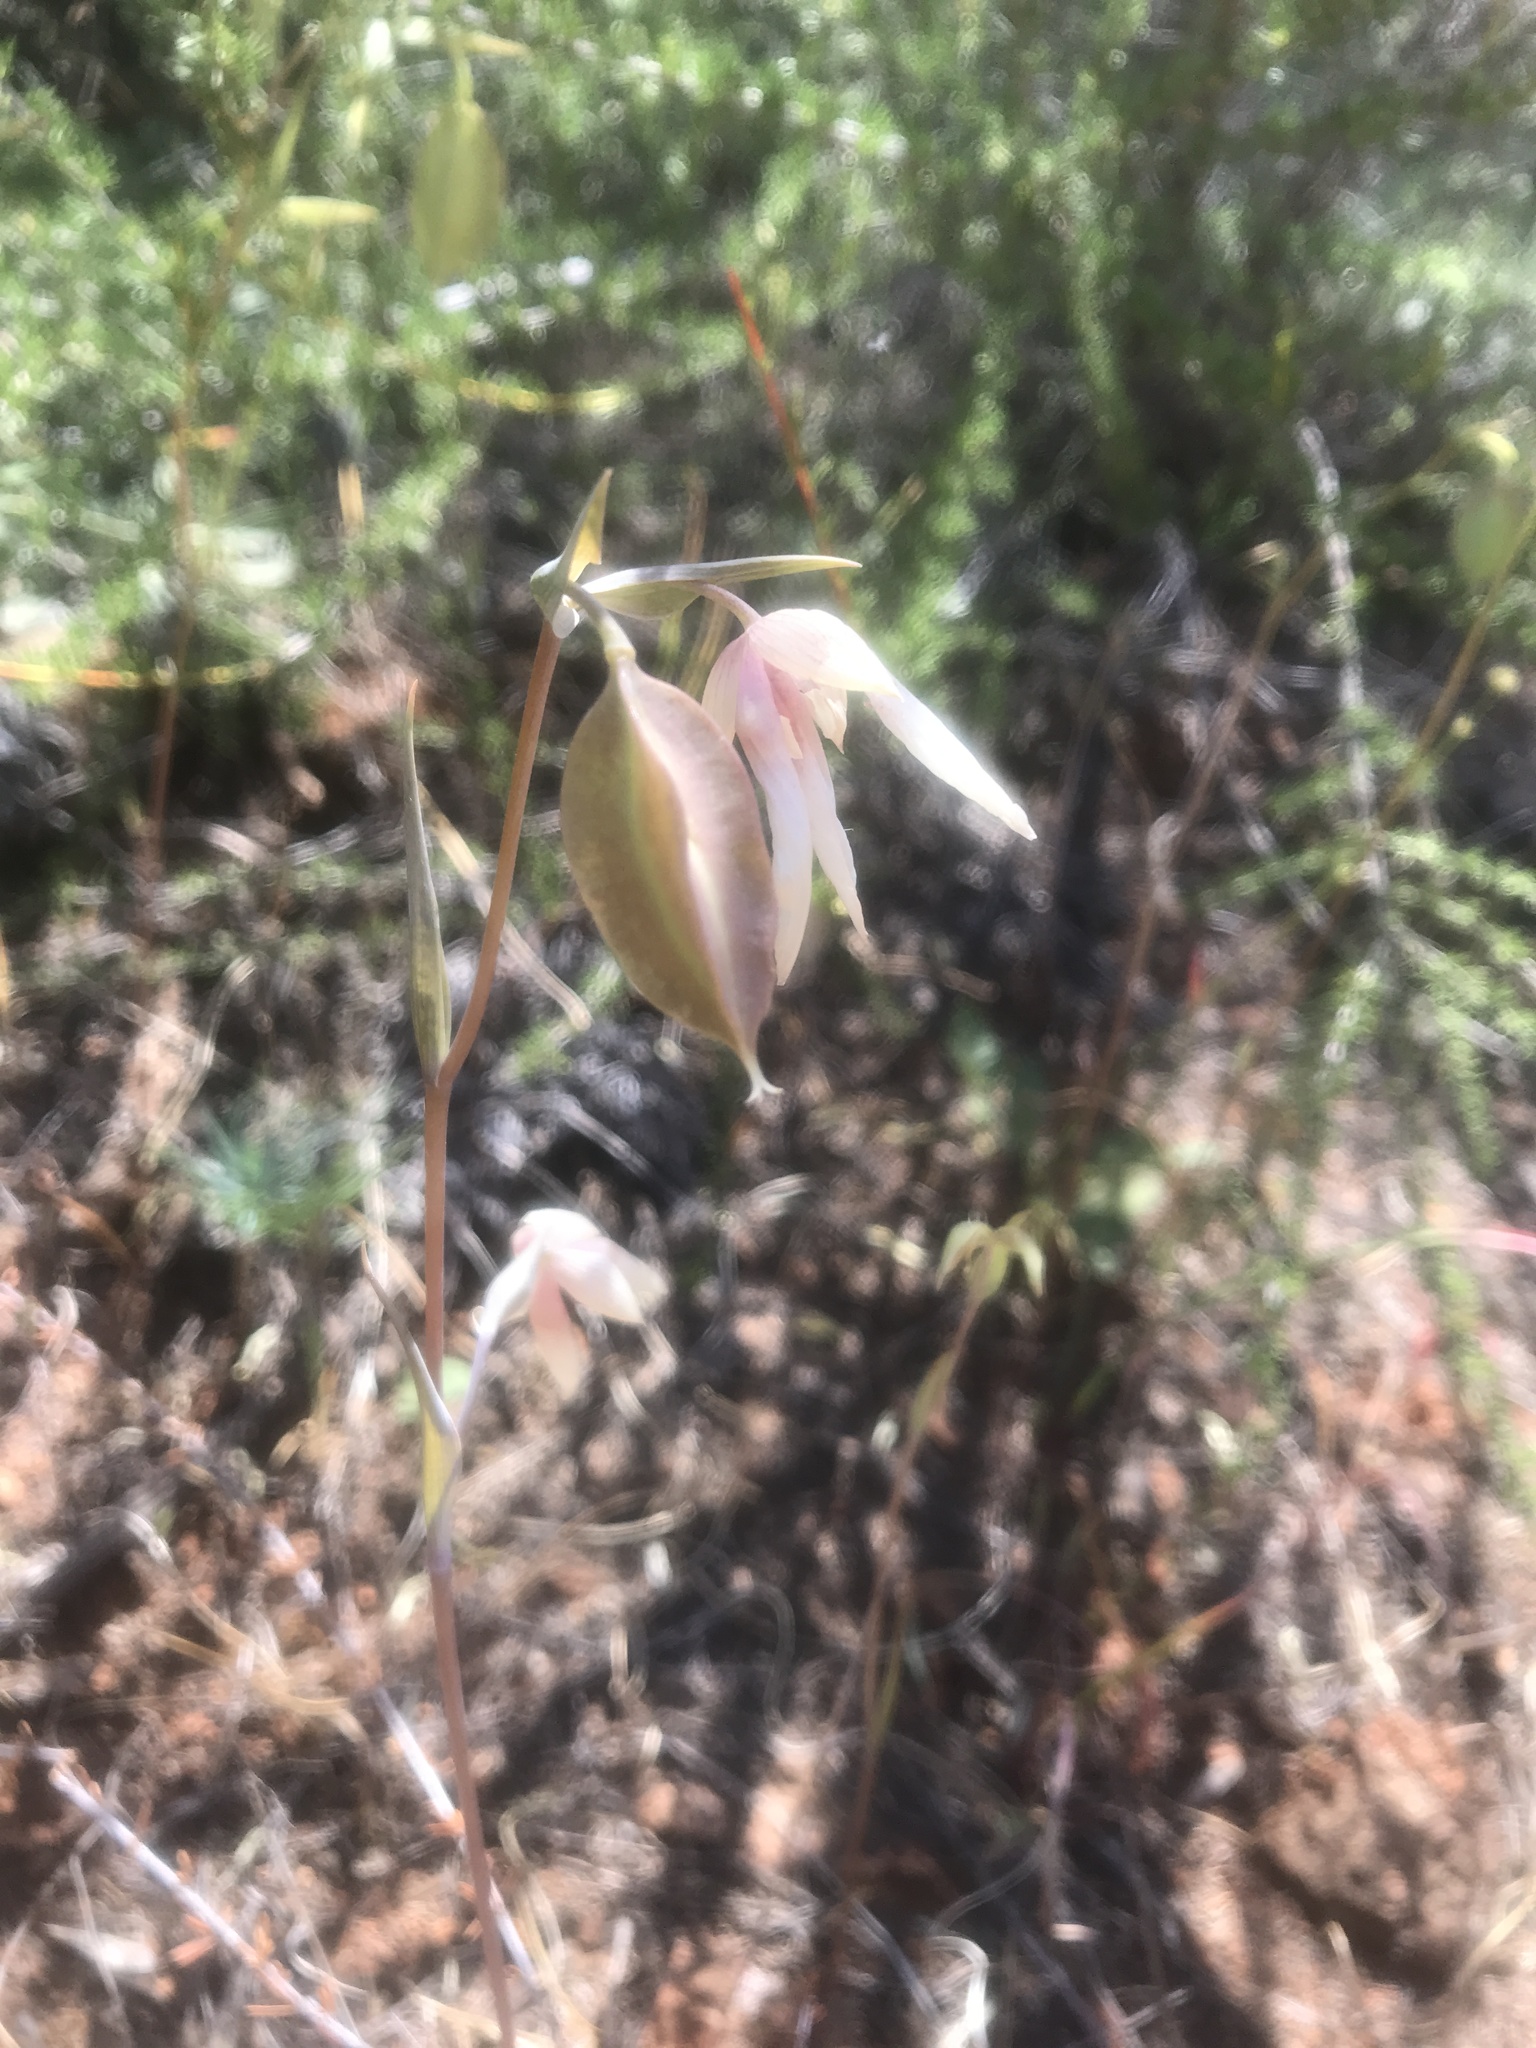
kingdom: Plantae
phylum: Tracheophyta
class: Liliopsida
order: Liliales
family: Liliaceae
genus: Calochortus
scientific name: Calochortus albus
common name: Fairy-lantern
